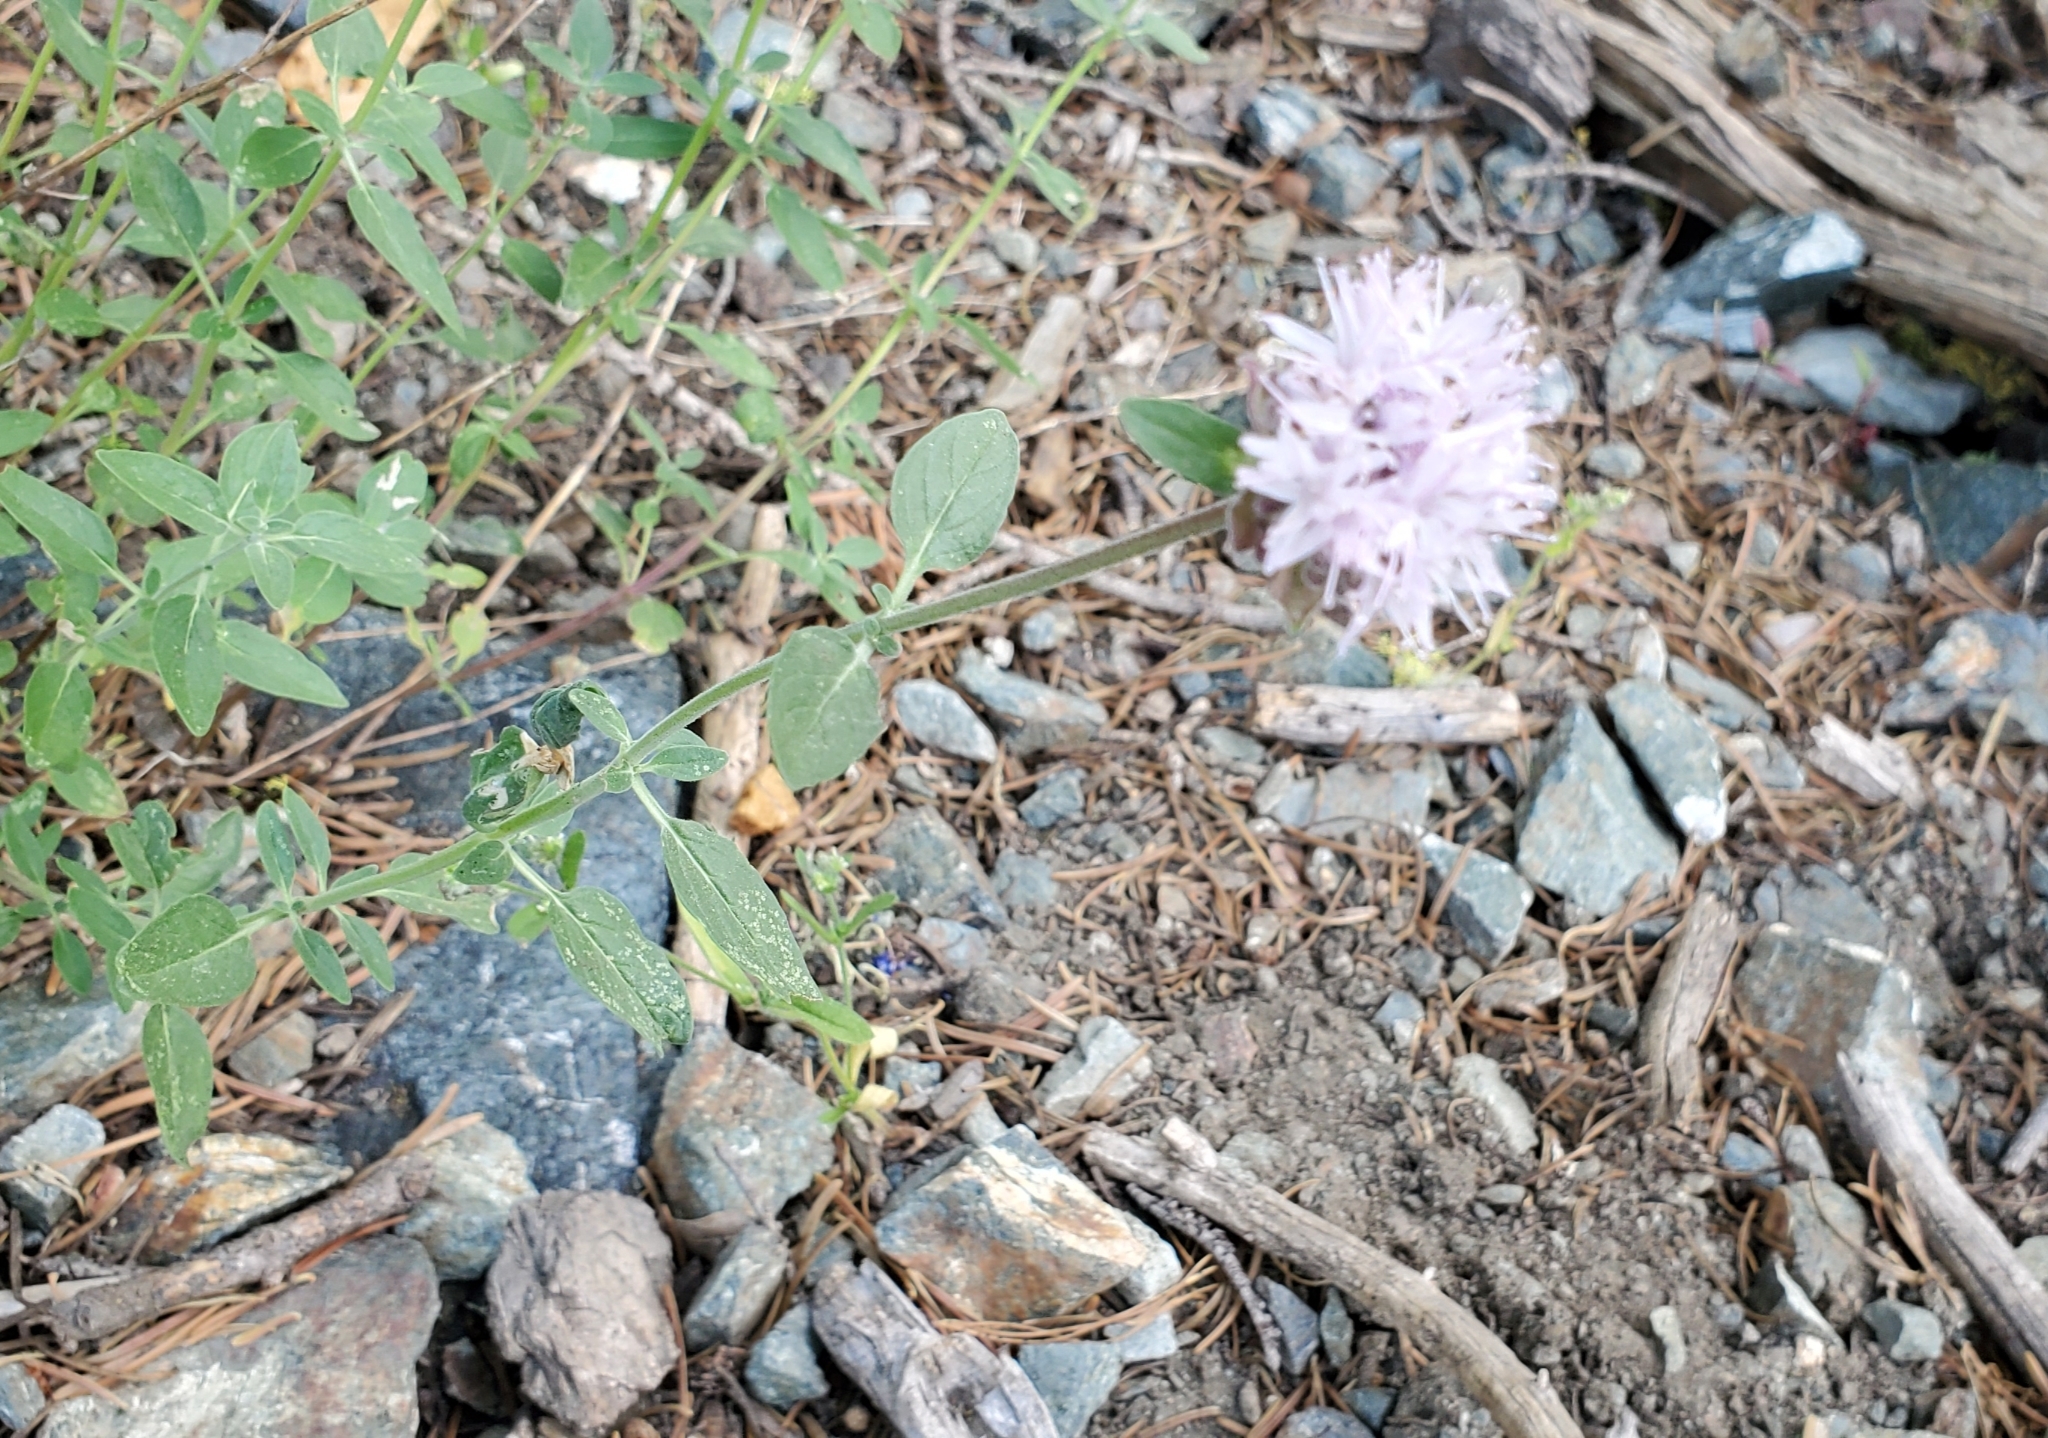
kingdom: Plantae
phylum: Tracheophyta
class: Magnoliopsida
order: Lamiales
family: Lamiaceae
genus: Monardella
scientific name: Monardella odoratissima
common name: Pacific monardella
